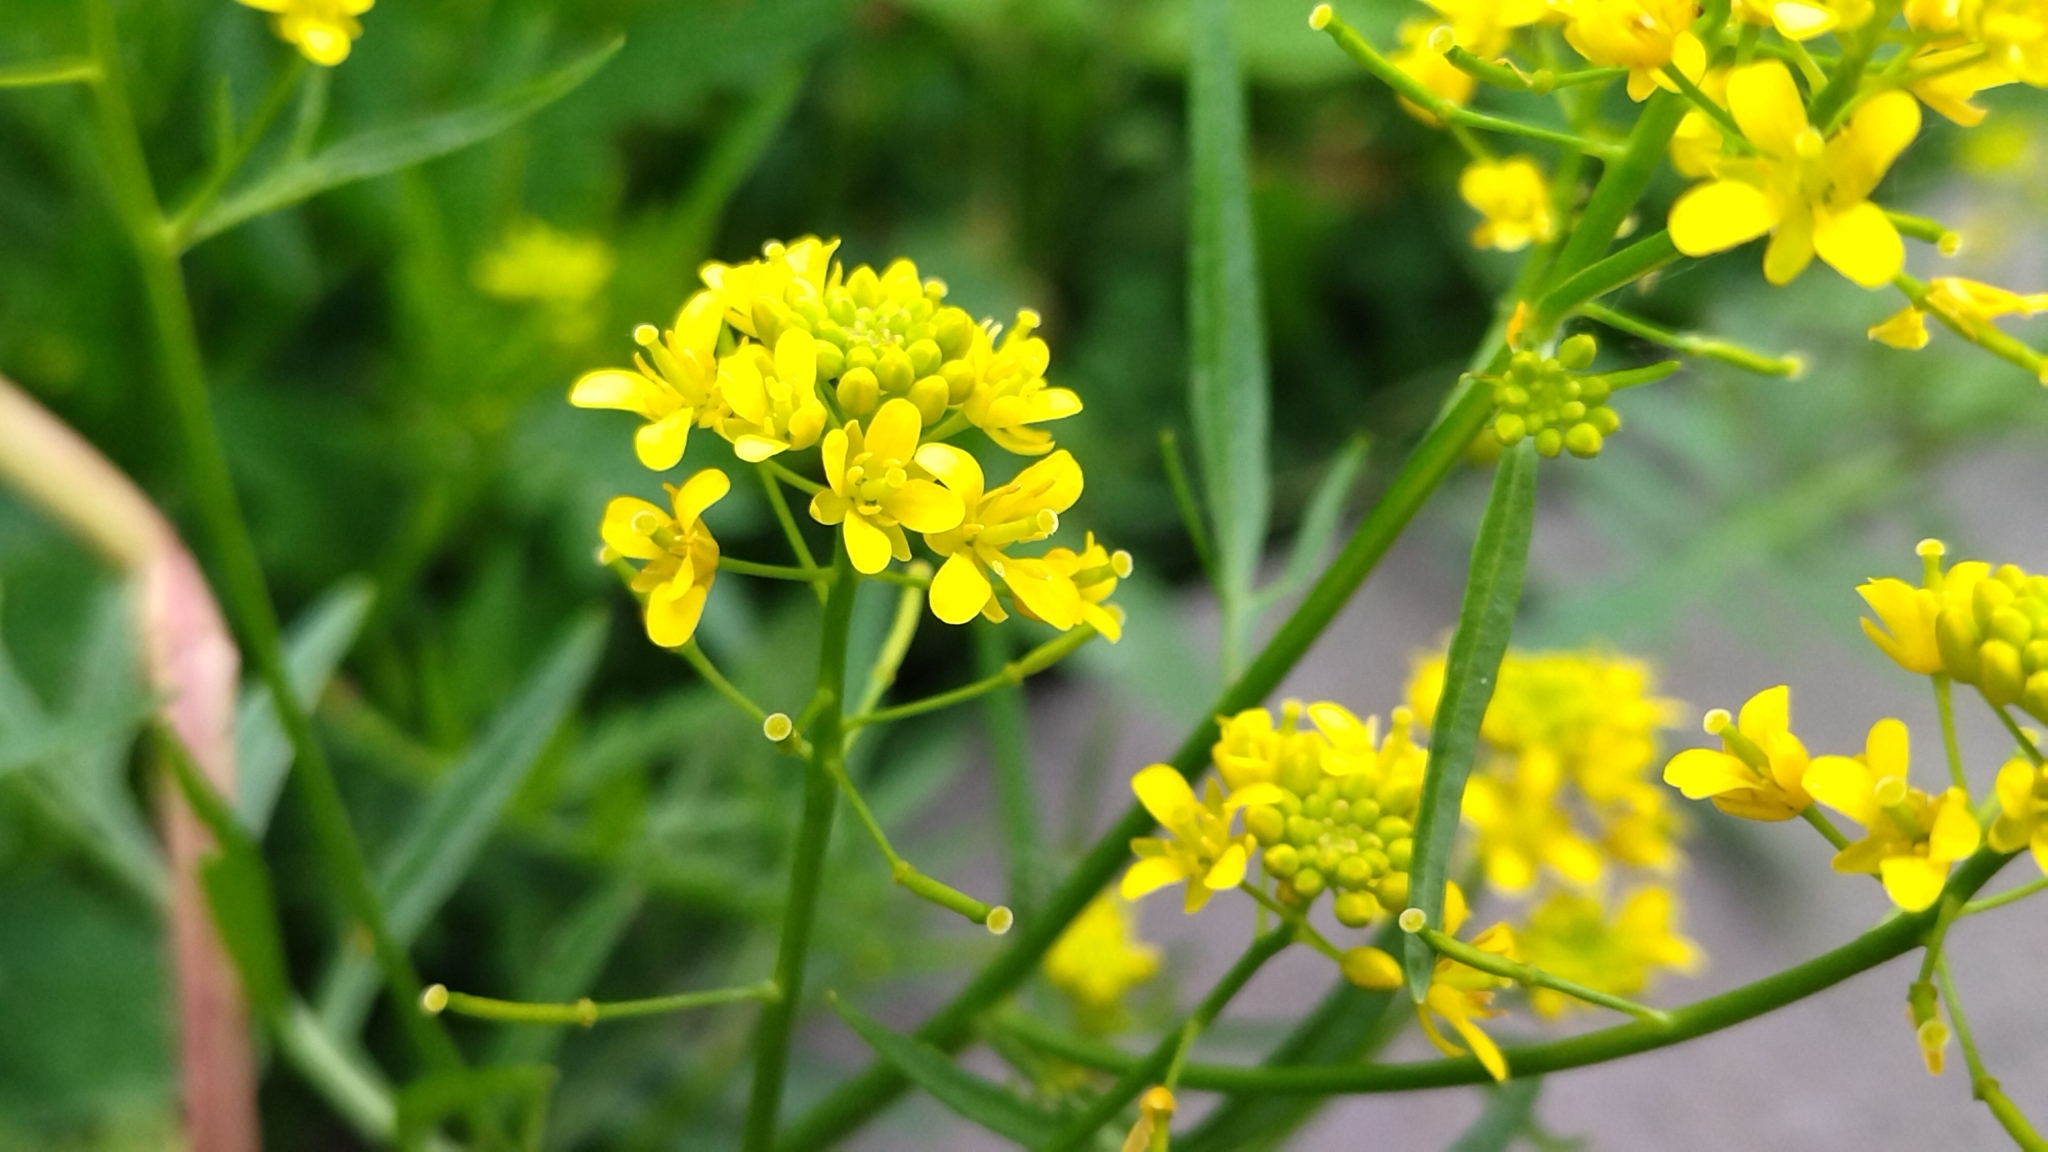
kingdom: Plantae
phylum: Tracheophyta
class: Magnoliopsida
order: Brassicales
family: Brassicaceae
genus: Rorippa
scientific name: Rorippa sylvestris
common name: Creeping yellowcress
